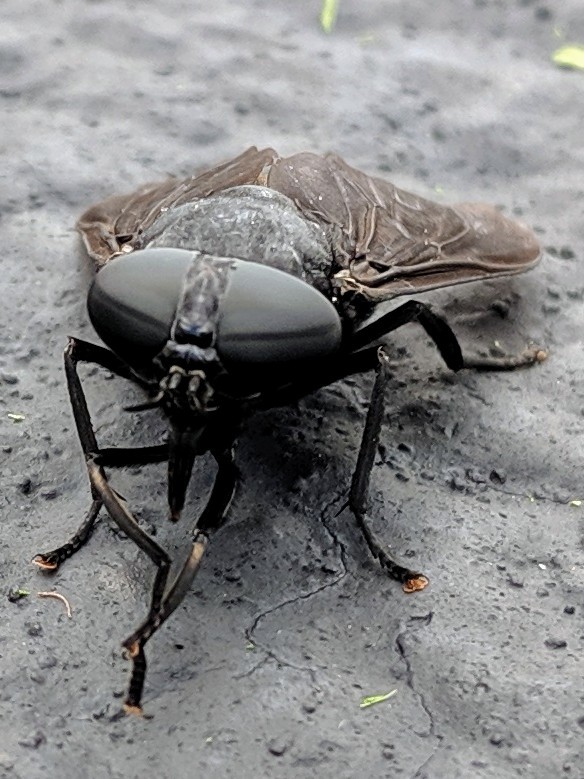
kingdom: Animalia
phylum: Arthropoda
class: Insecta
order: Diptera
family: Tabanidae
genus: Tabanus
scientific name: Tabanus atratus
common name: Black horse fly
